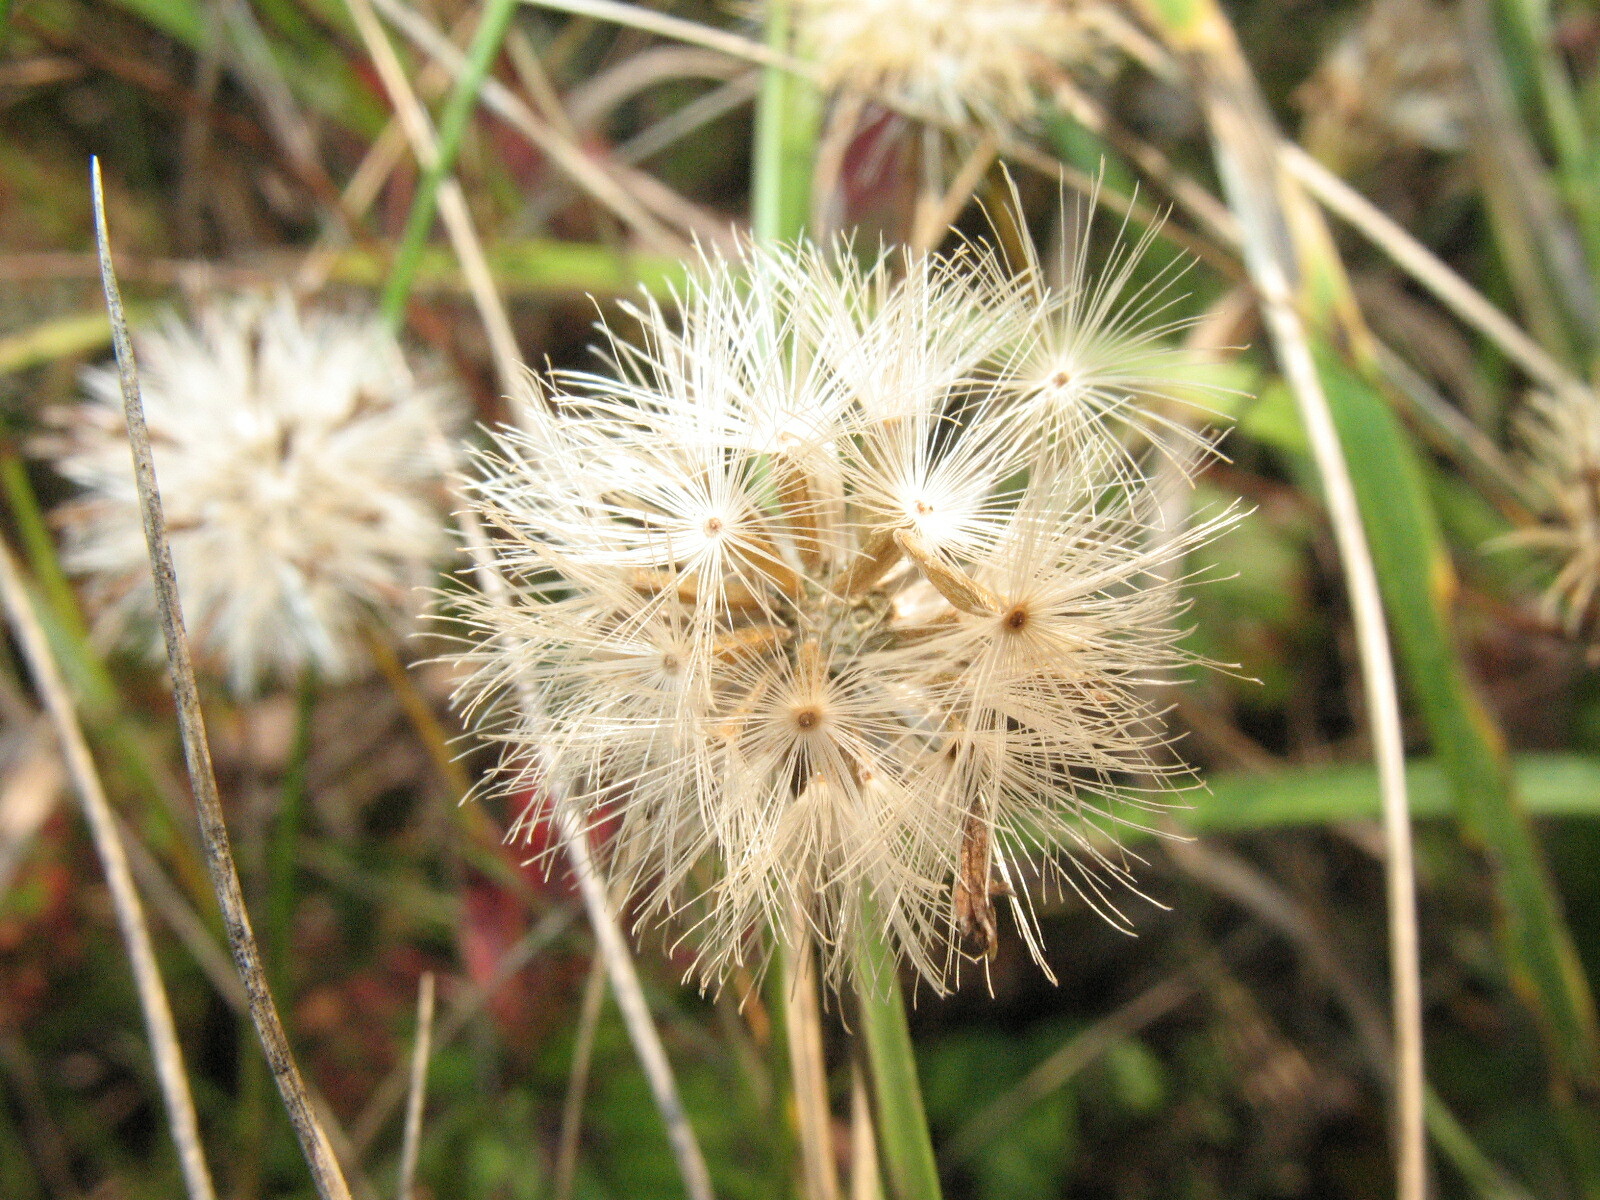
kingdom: Plantae
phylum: Tracheophyta
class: Magnoliopsida
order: Asterales
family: Asteraceae
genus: Galatella
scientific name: Galatella angustissima
